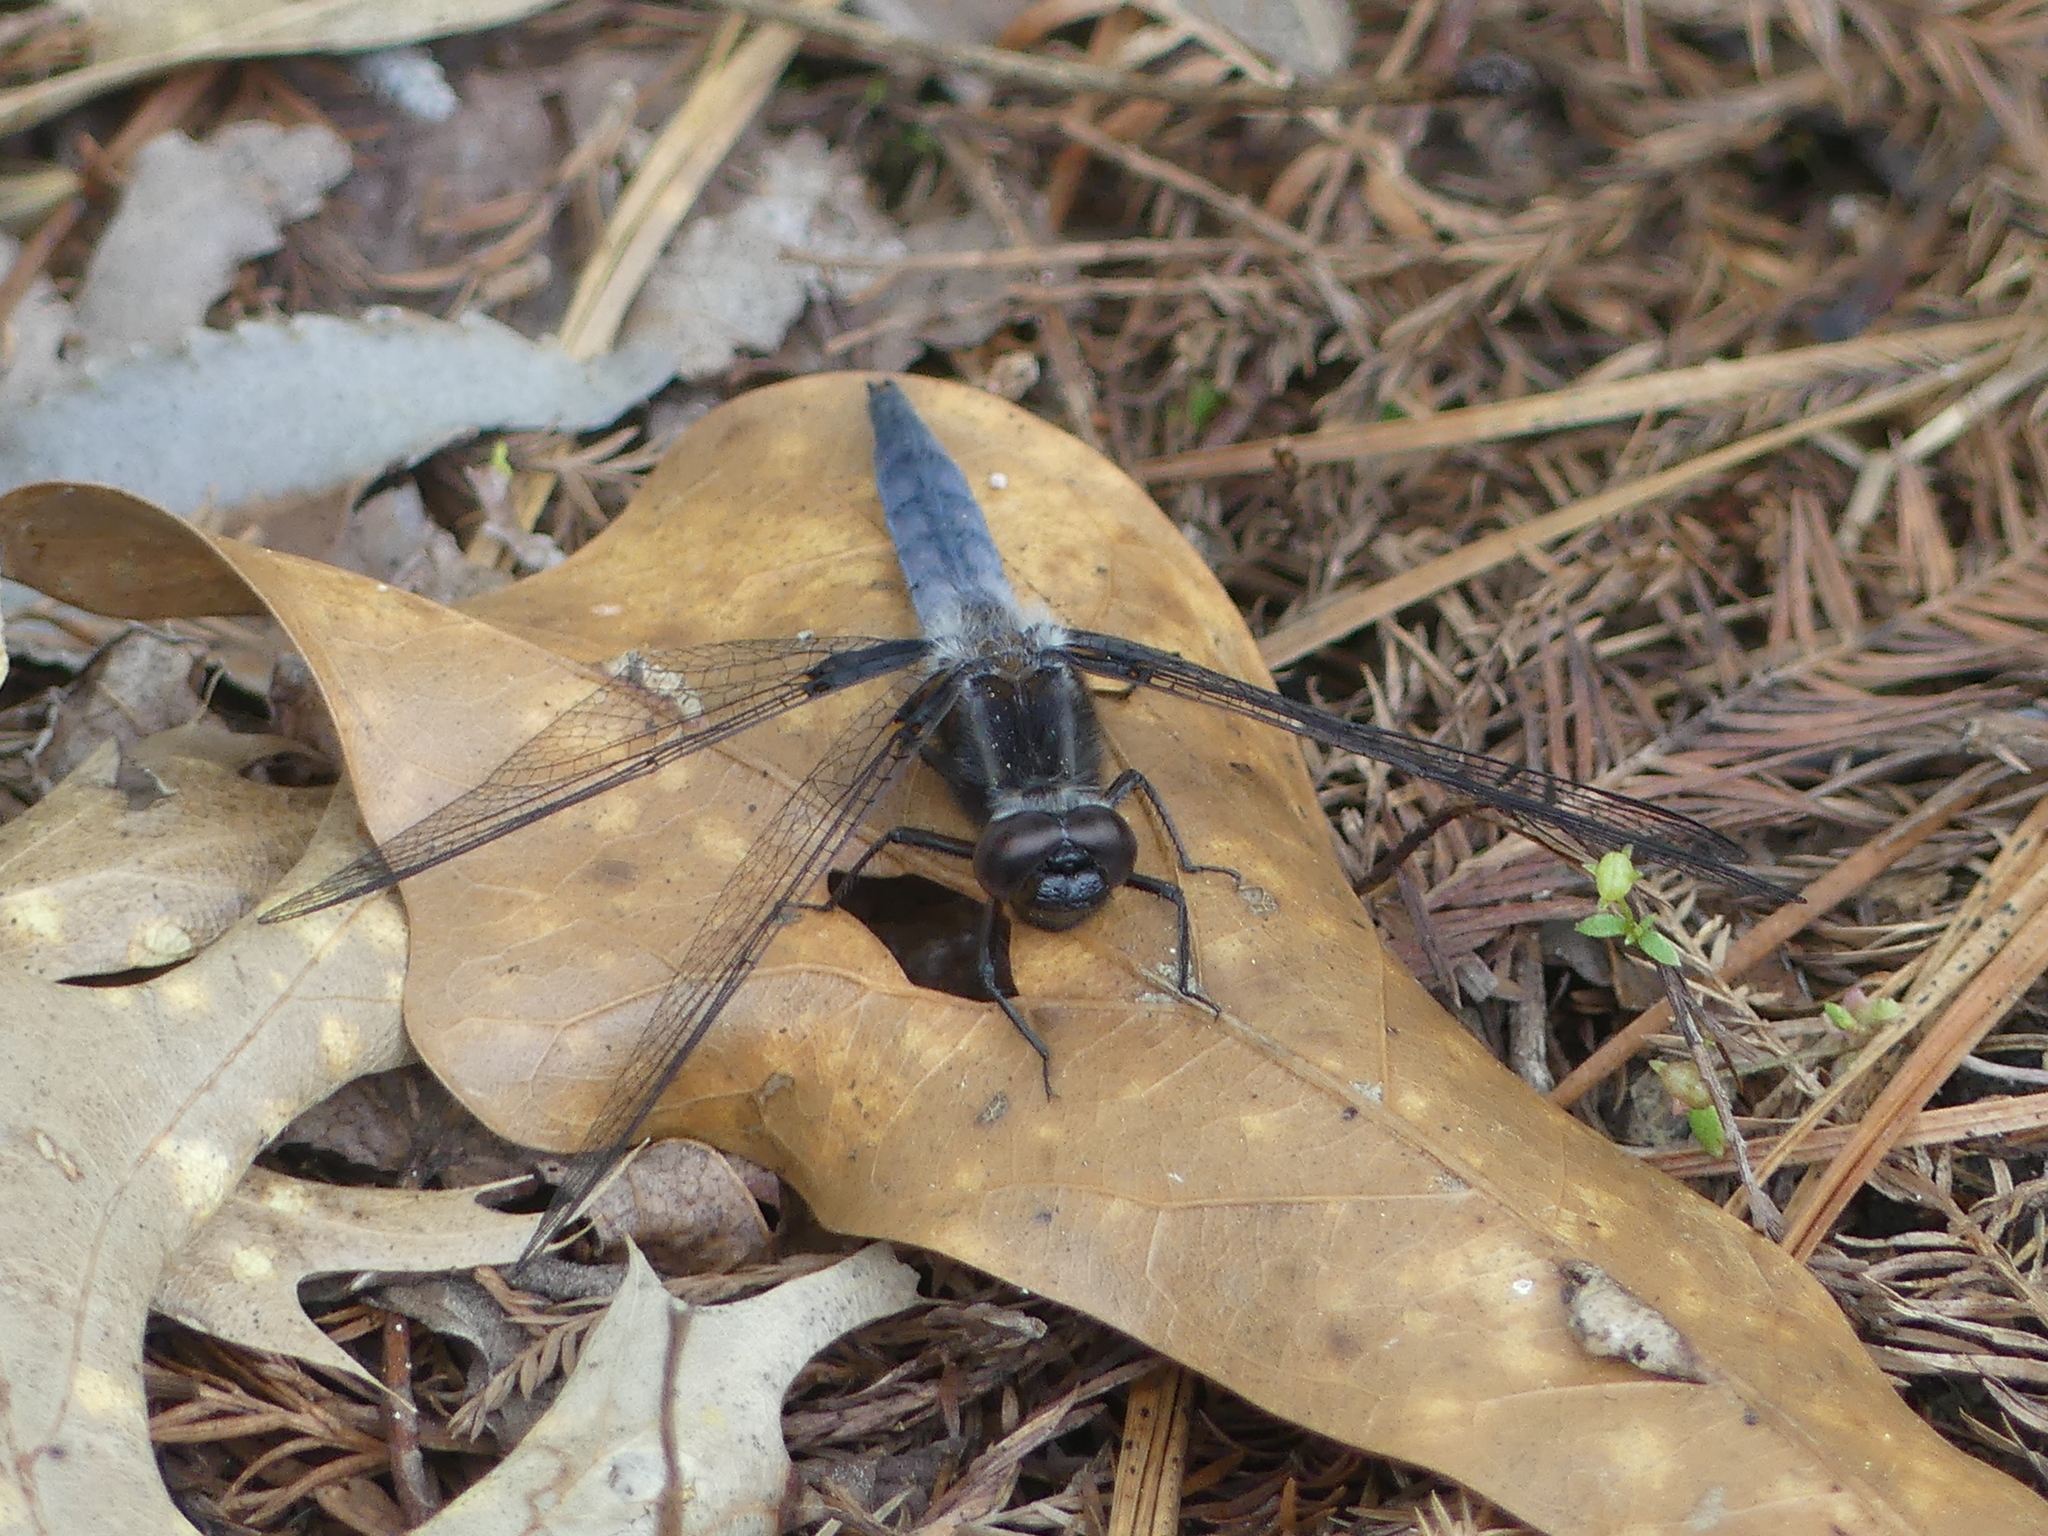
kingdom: Animalia
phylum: Arthropoda
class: Insecta
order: Odonata
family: Libellulidae
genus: Ladona
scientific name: Ladona deplanata
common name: Blue corporal
